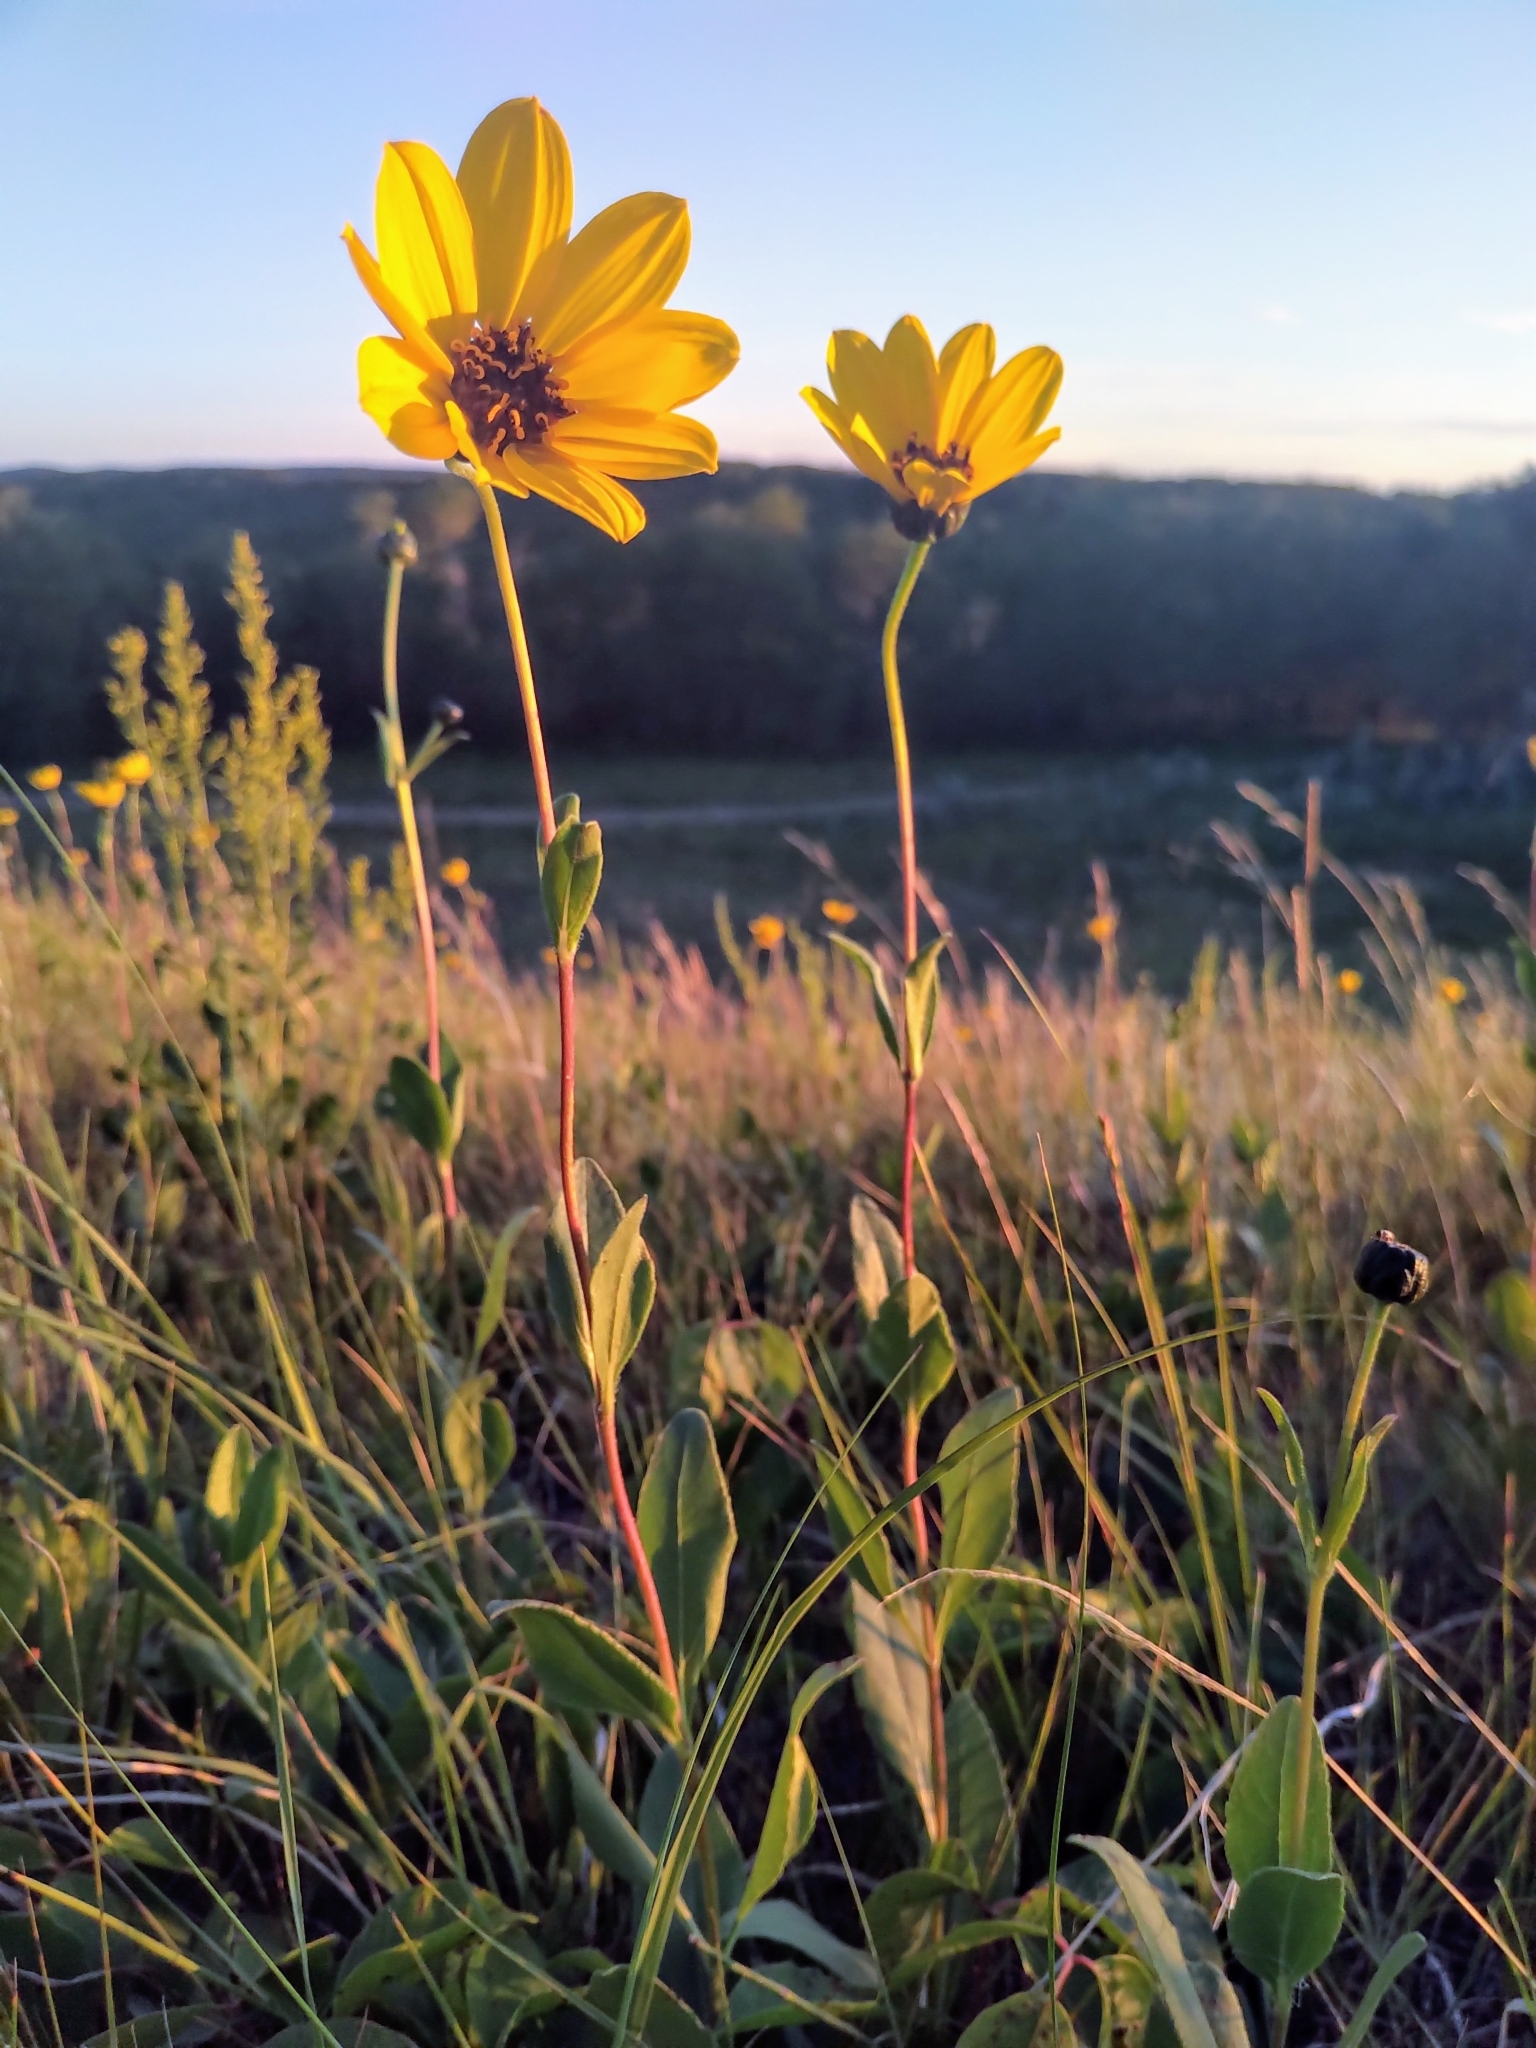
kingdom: Plantae
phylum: Tracheophyta
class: Magnoliopsida
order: Asterales
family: Asteraceae
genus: Helianthus
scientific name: Helianthus pauciflorus
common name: Stiff sunflower
